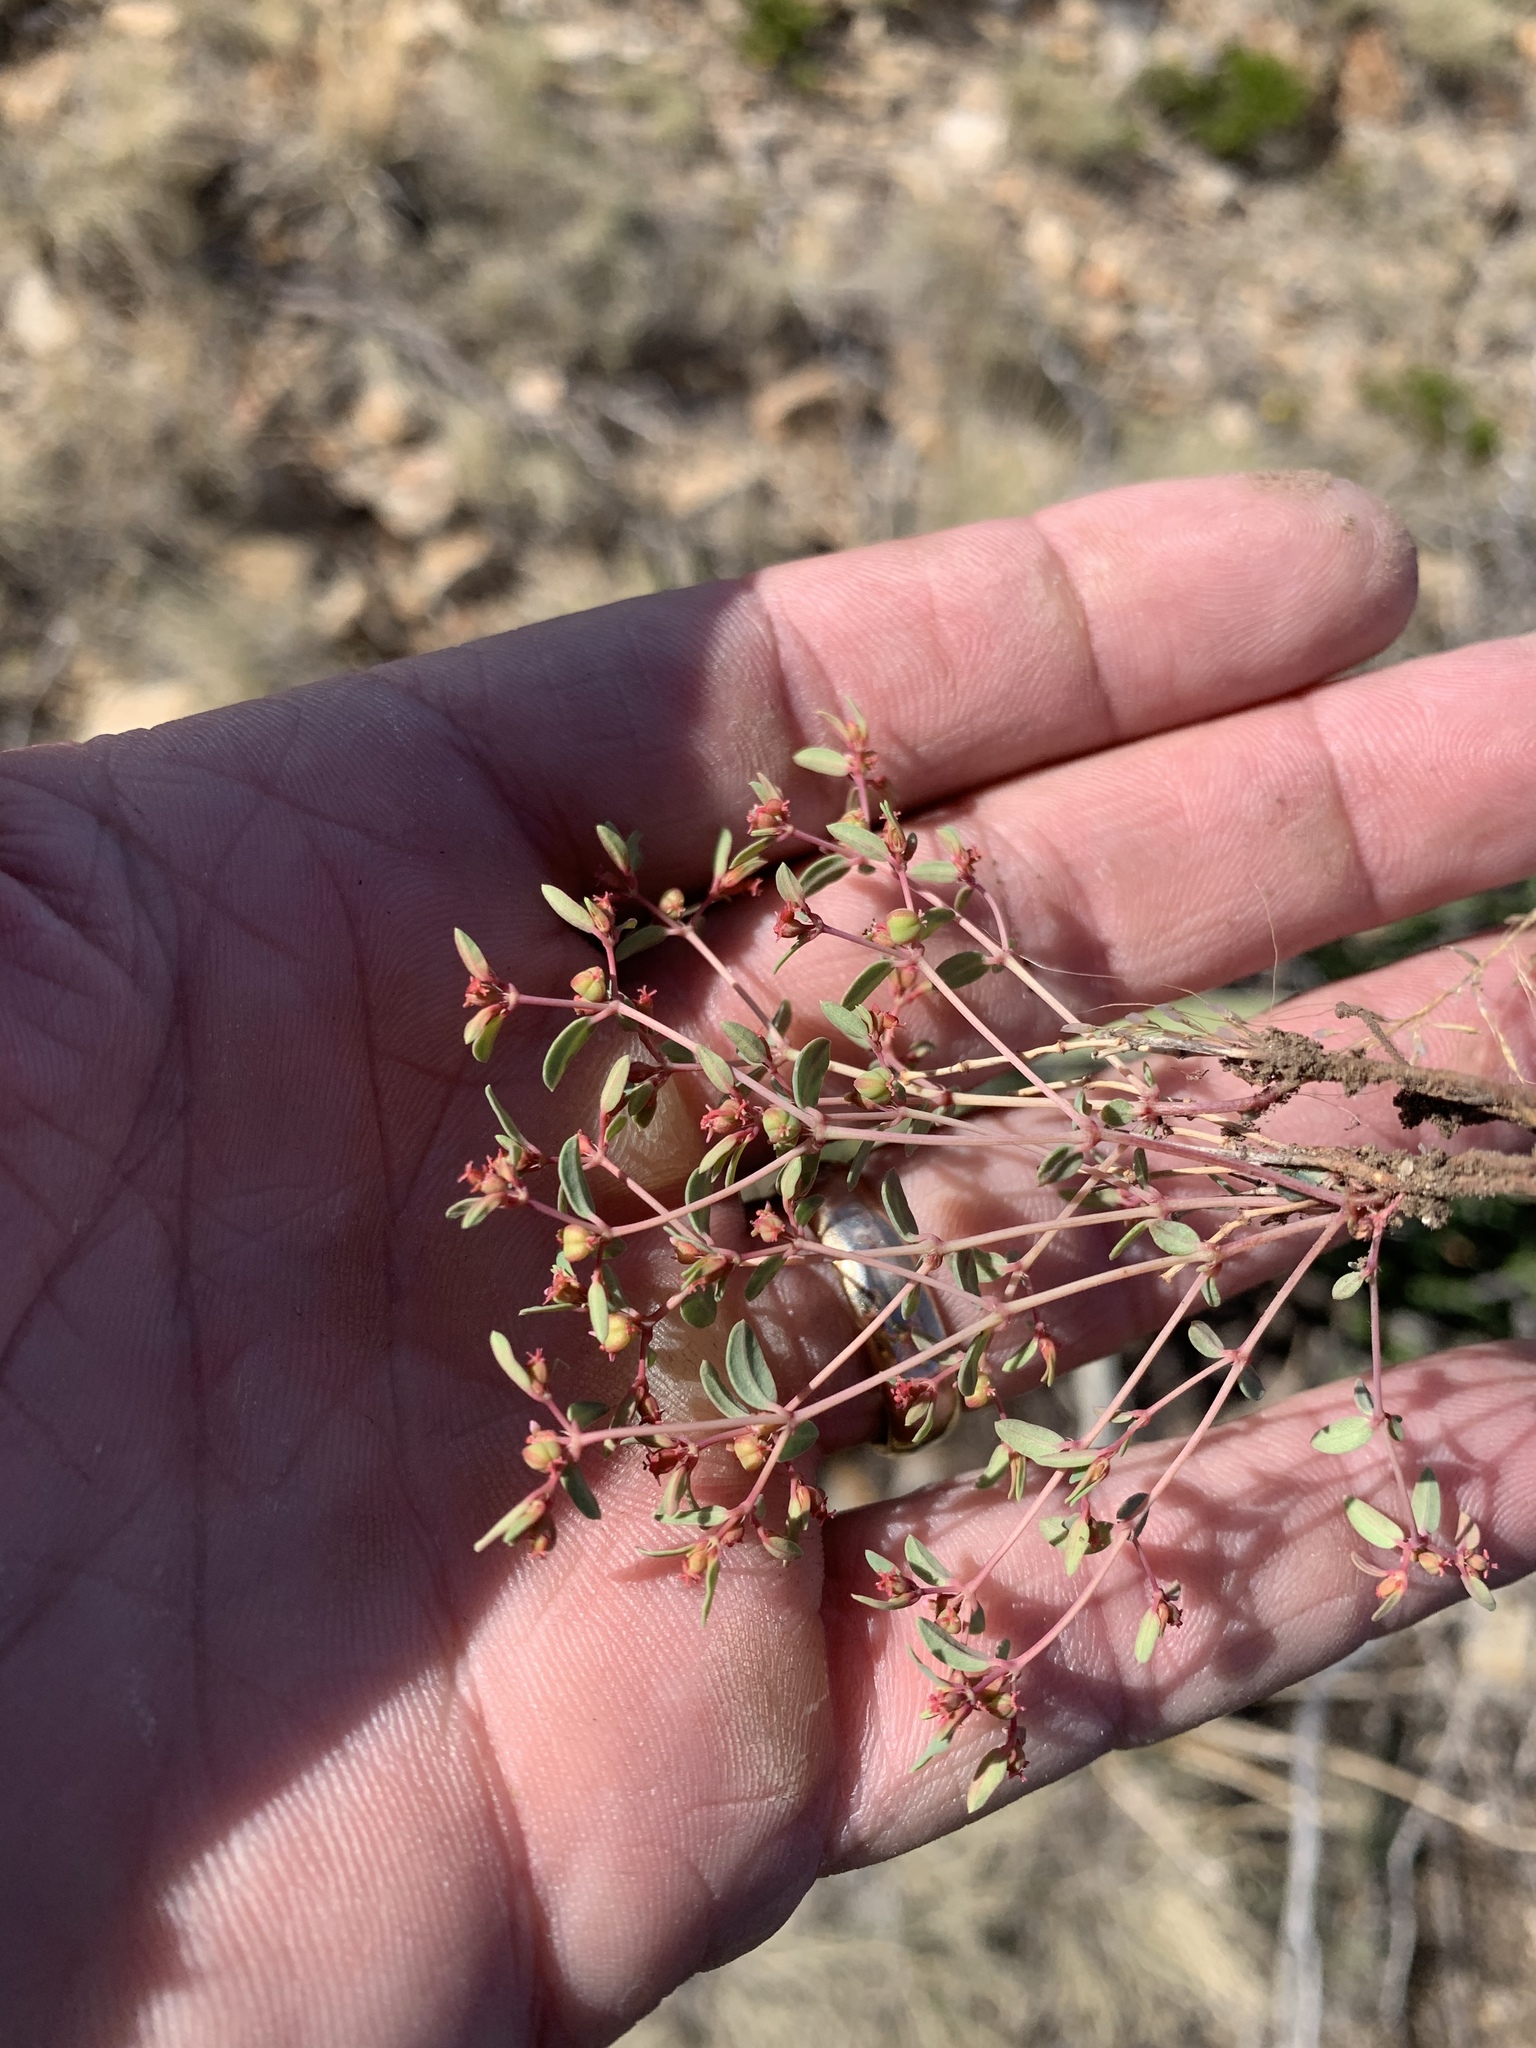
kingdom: Plantae
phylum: Tracheophyta
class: Magnoliopsida
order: Malpighiales
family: Euphorbiaceae
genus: Euphorbia
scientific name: Euphorbia chaetocalyx
